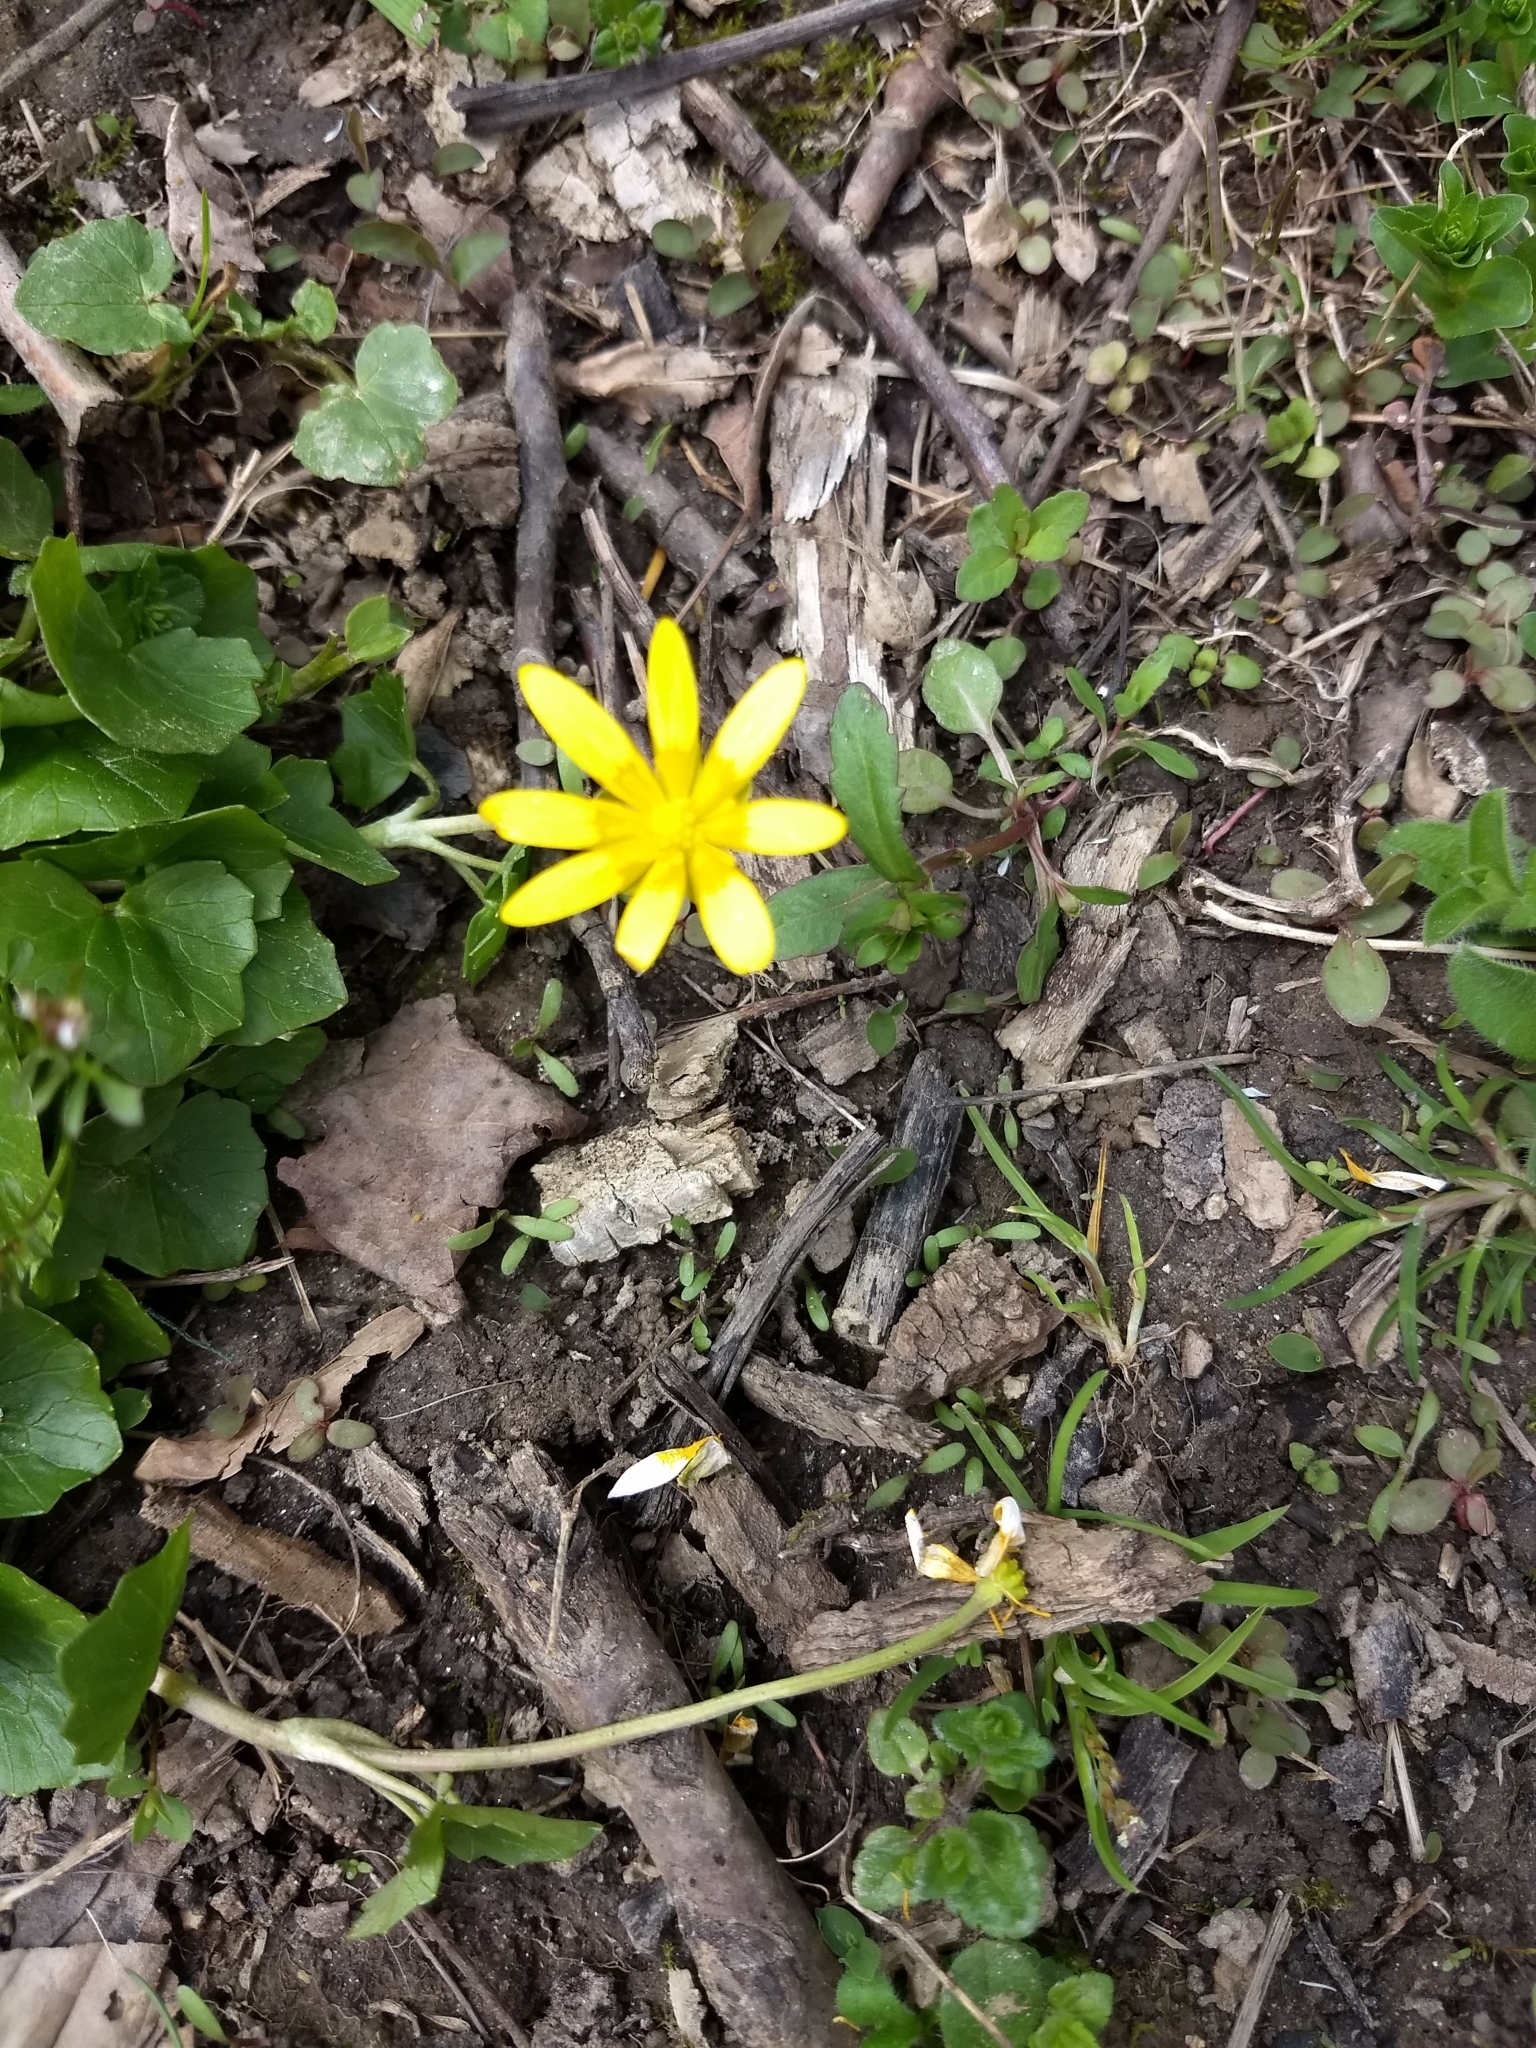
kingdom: Plantae
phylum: Tracheophyta
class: Magnoliopsida
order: Ranunculales
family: Ranunculaceae
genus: Ficaria
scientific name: Ficaria verna
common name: Lesser celandine
